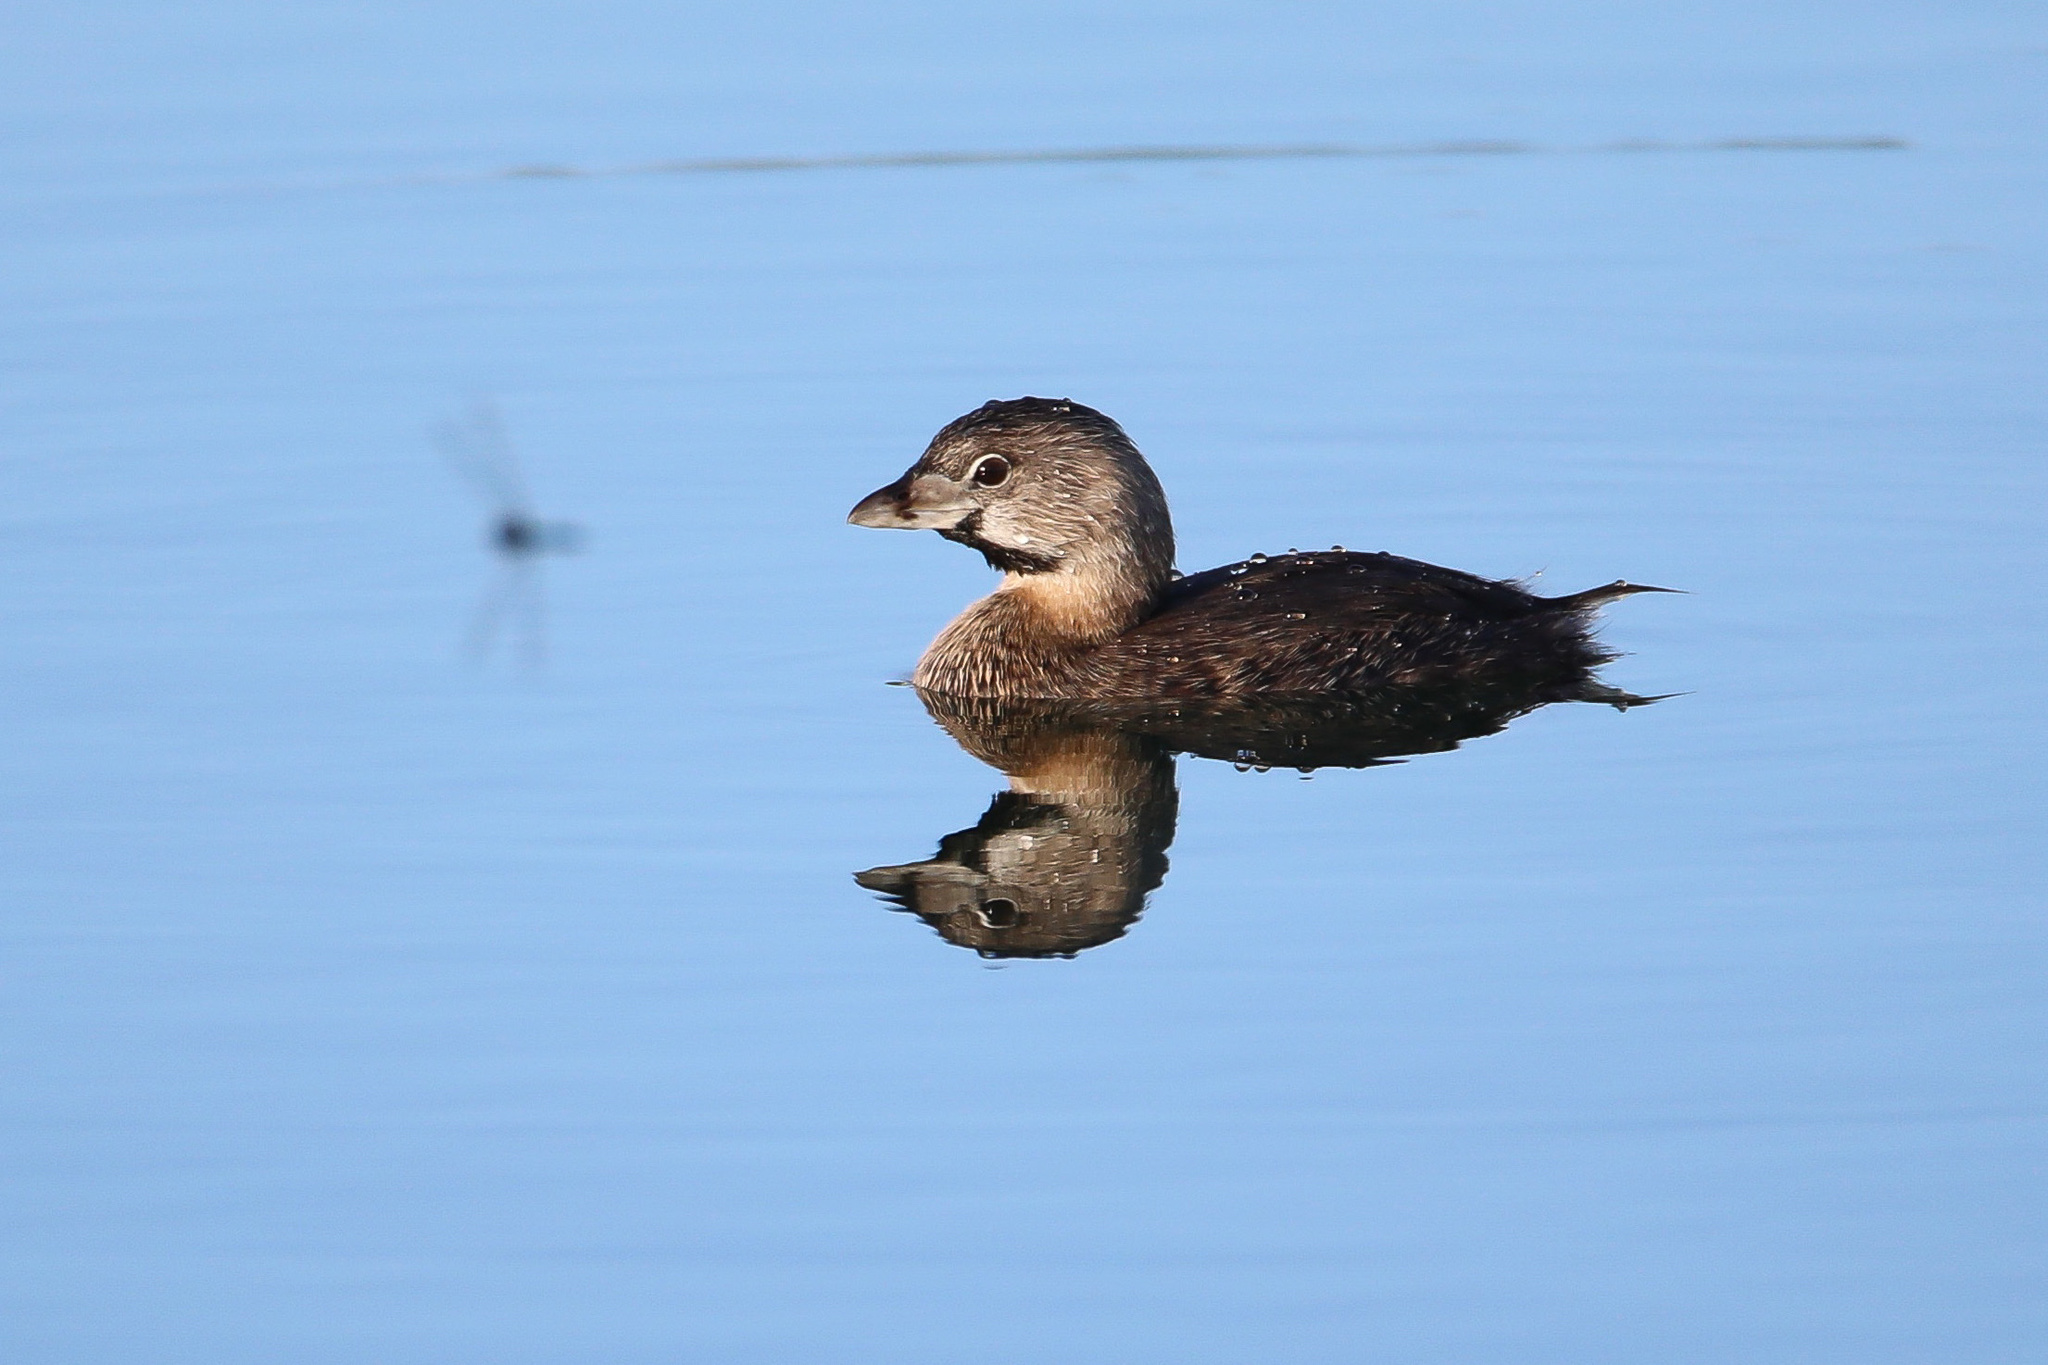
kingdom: Animalia
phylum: Chordata
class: Aves
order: Podicipediformes
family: Podicipedidae
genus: Podilymbus
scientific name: Podilymbus podiceps
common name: Pied-billed grebe
